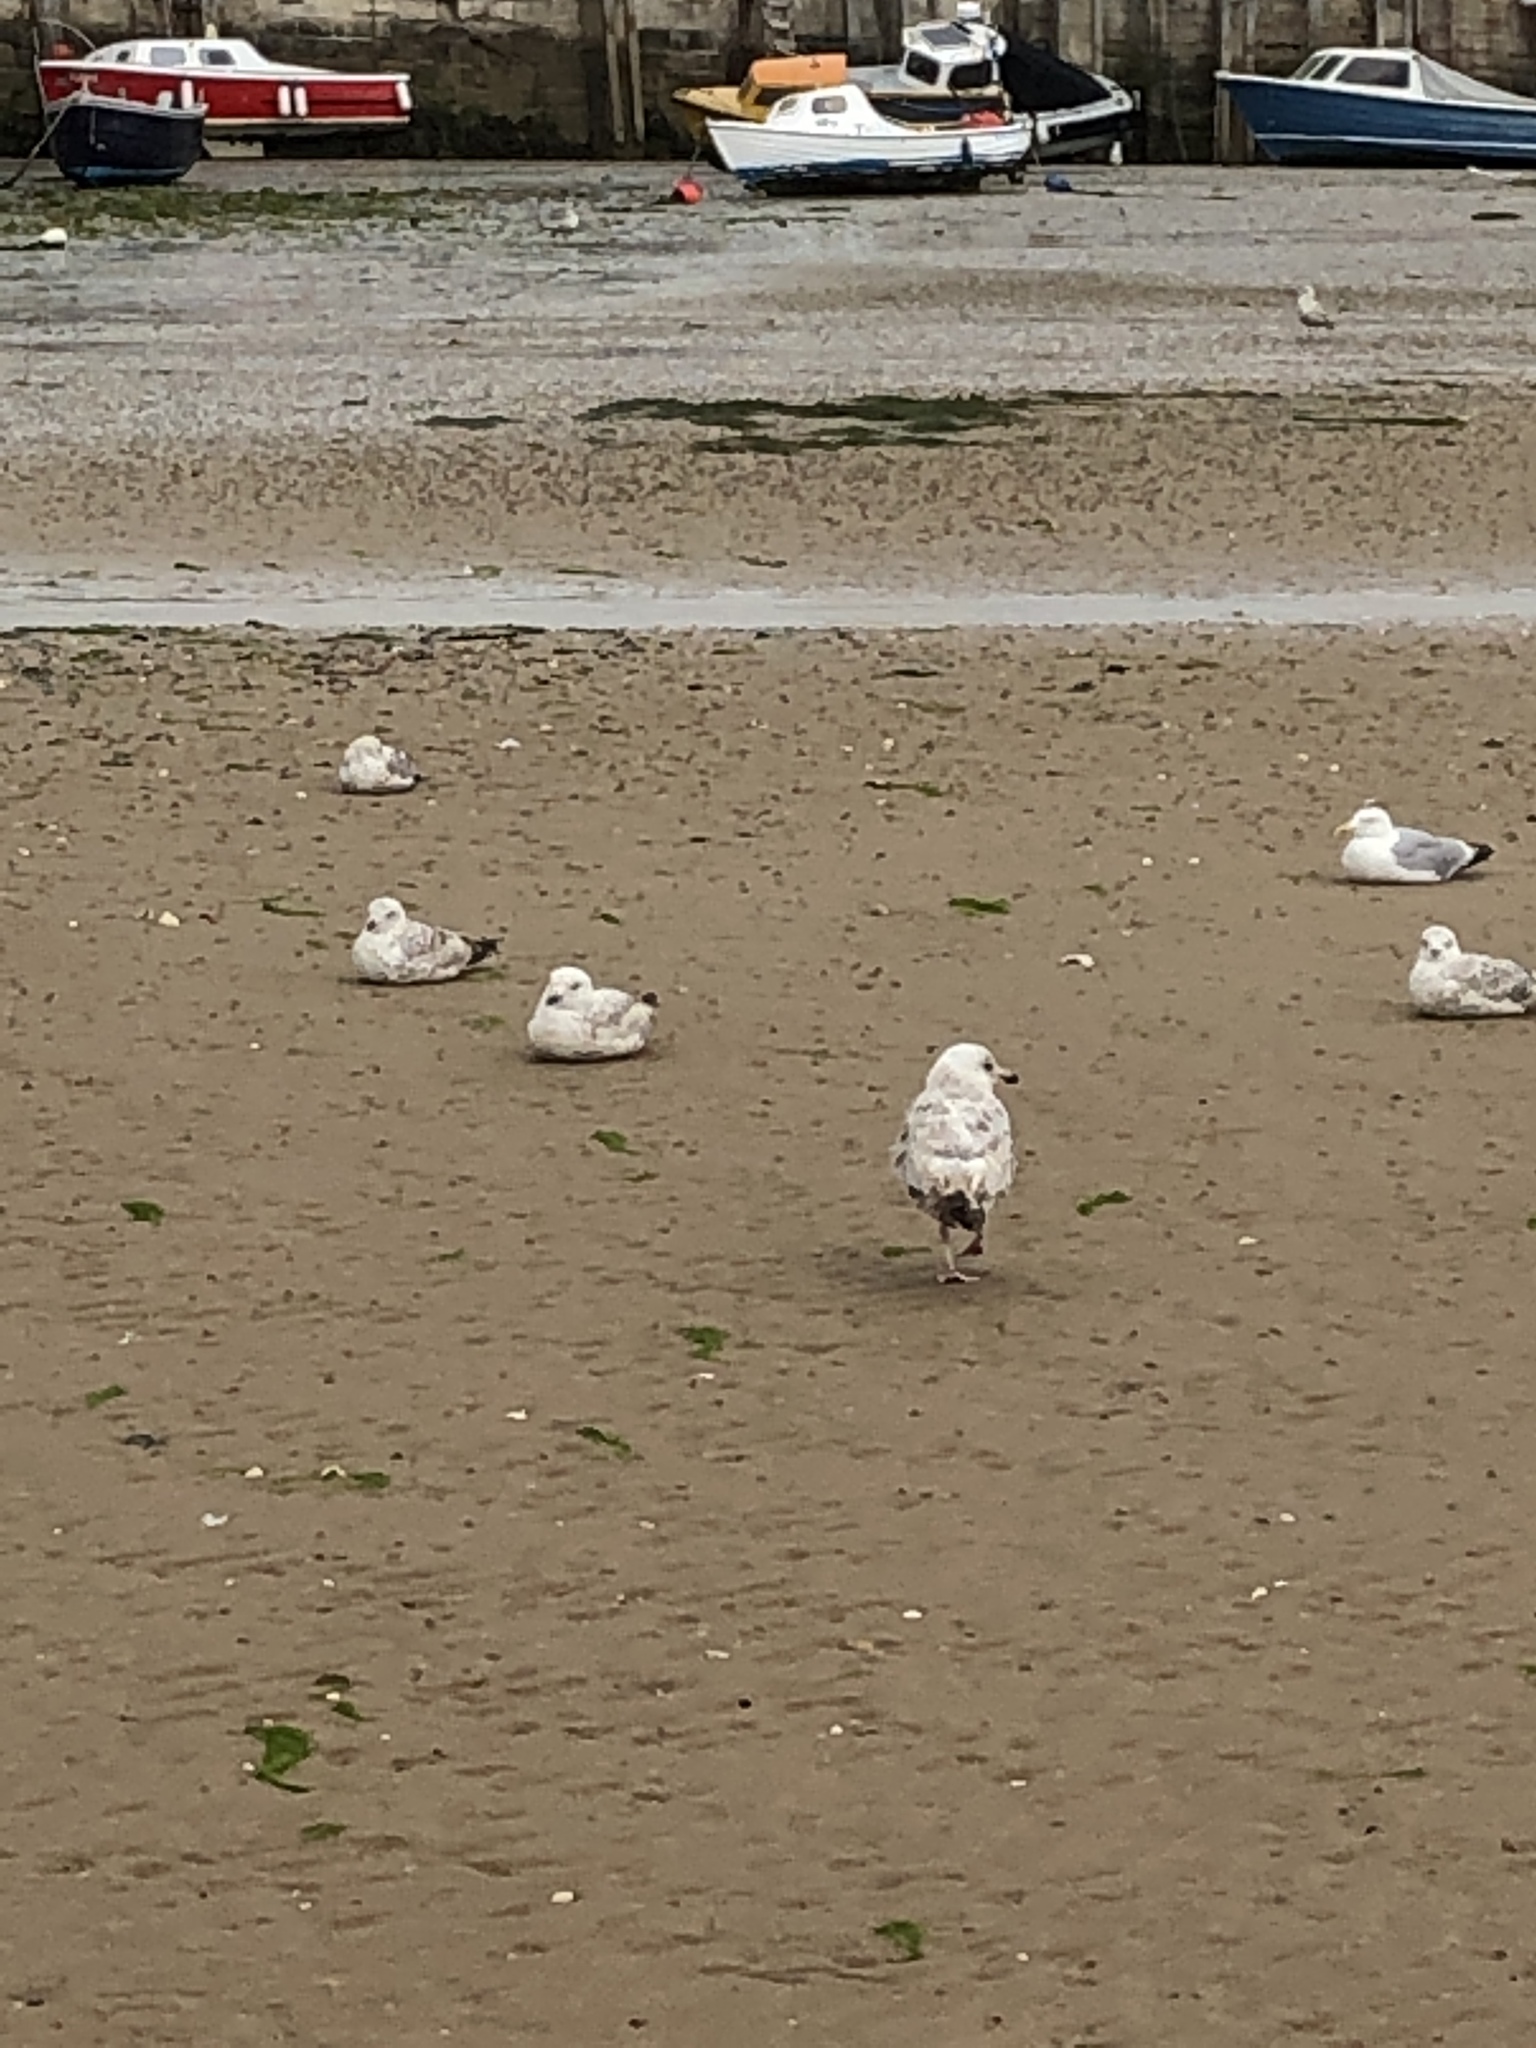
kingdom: Animalia
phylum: Chordata
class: Aves
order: Charadriiformes
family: Laridae
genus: Larus
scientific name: Larus argentatus
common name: Herring gull
